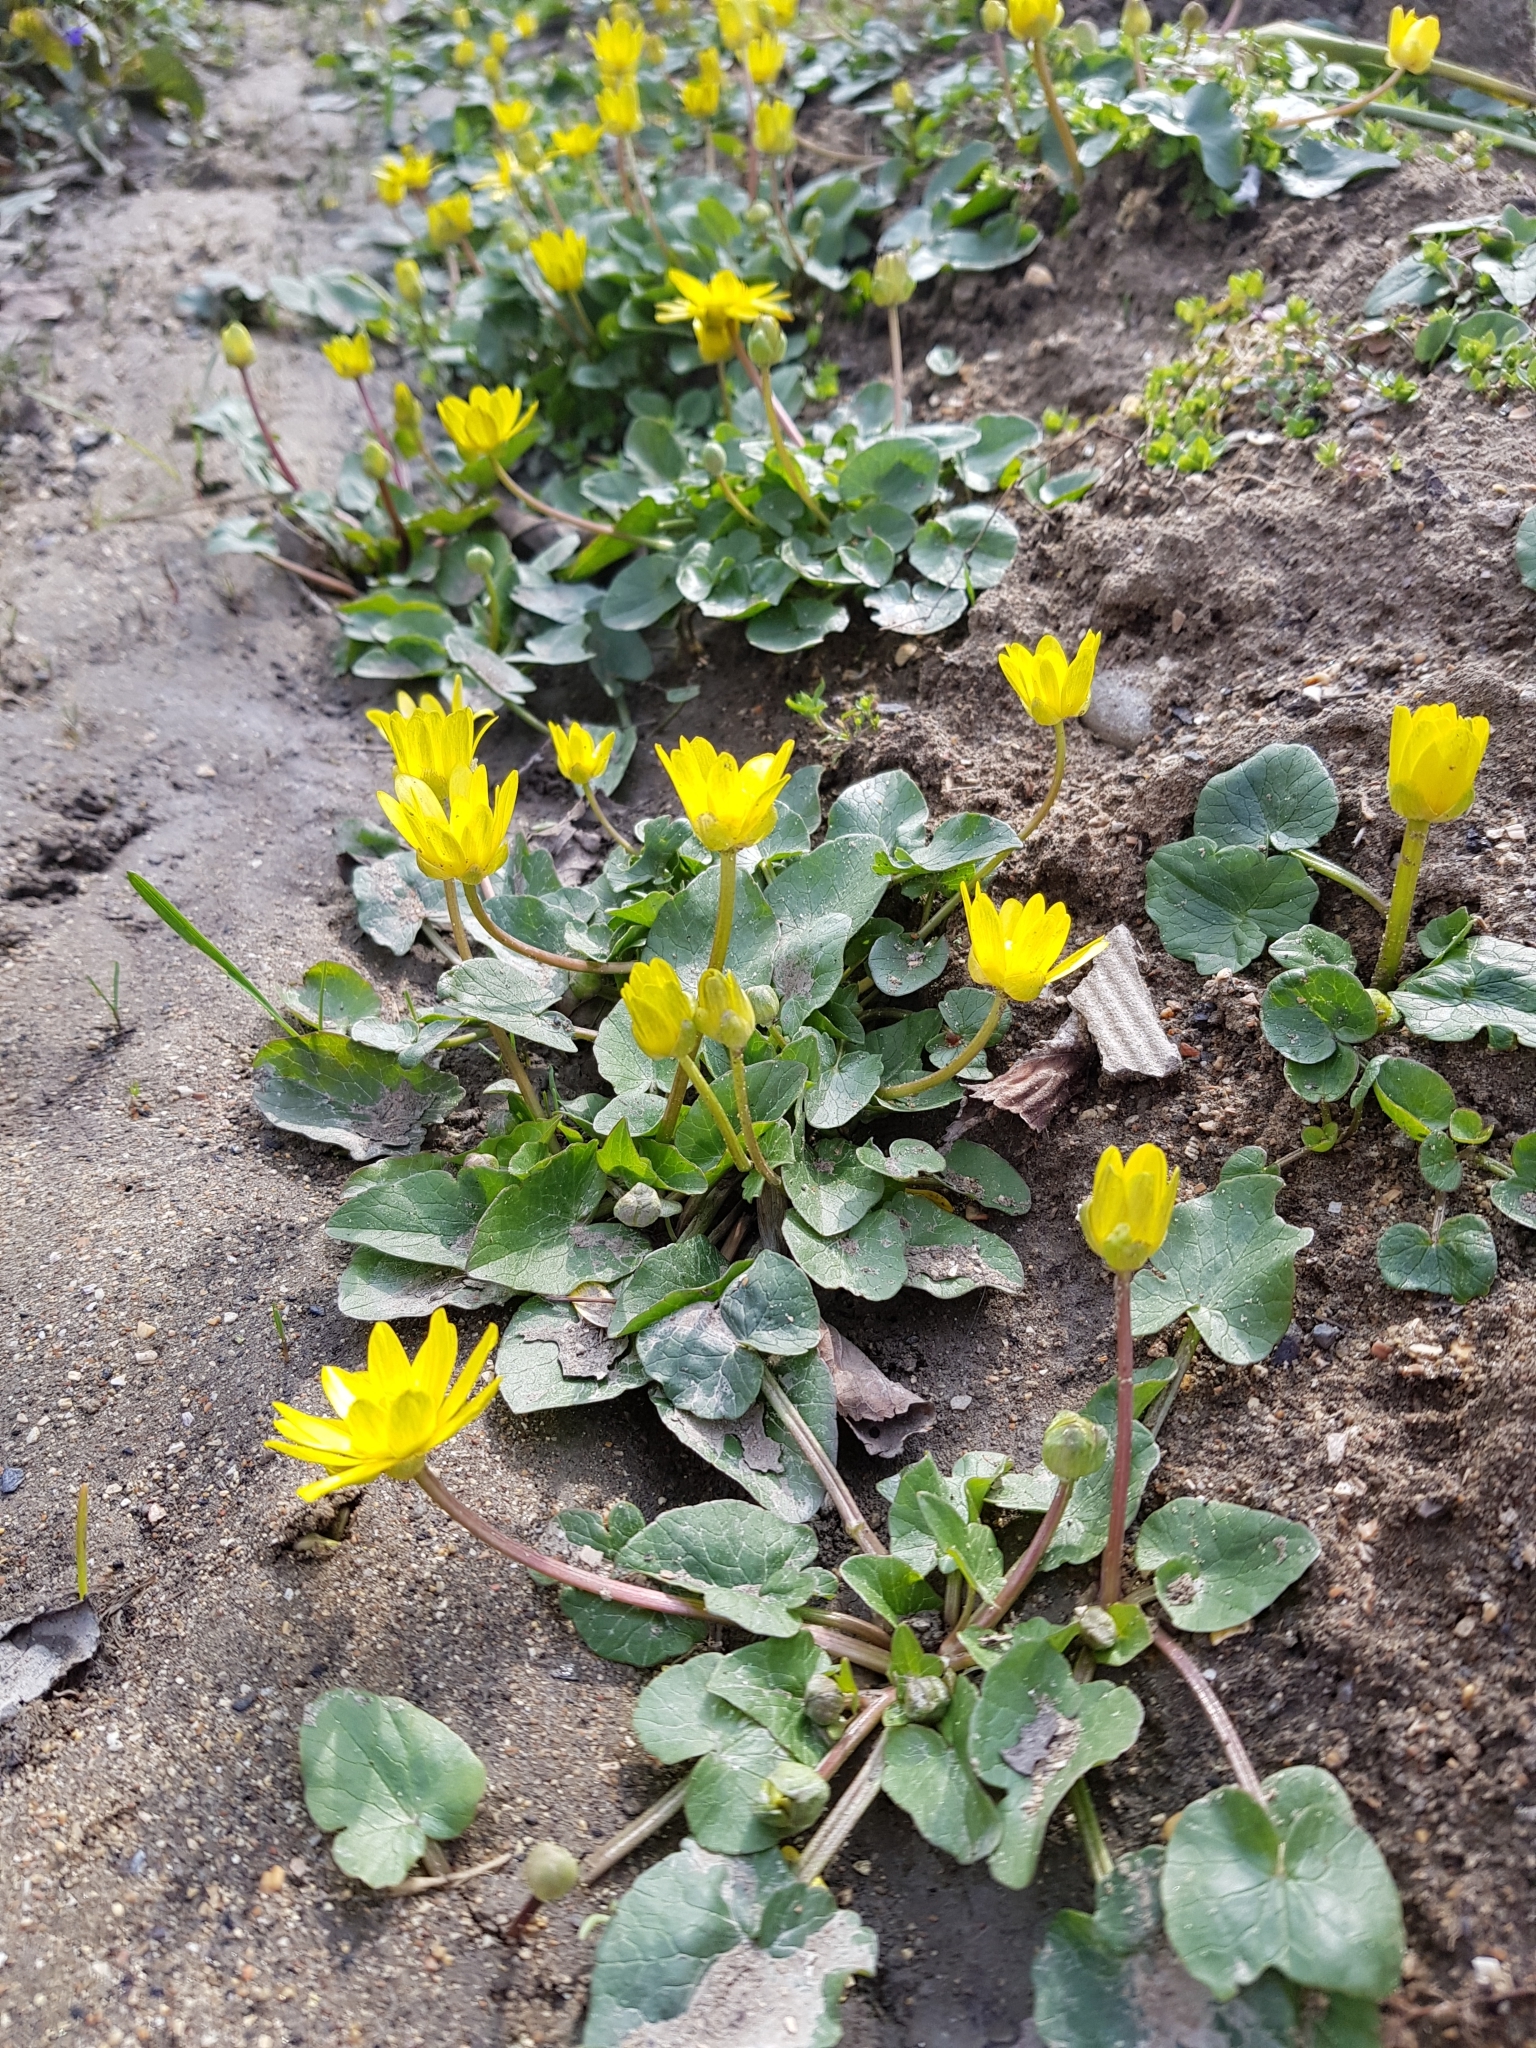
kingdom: Plantae
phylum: Tracheophyta
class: Magnoliopsida
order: Ranunculales
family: Ranunculaceae
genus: Ficaria
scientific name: Ficaria verna
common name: Lesser celandine
